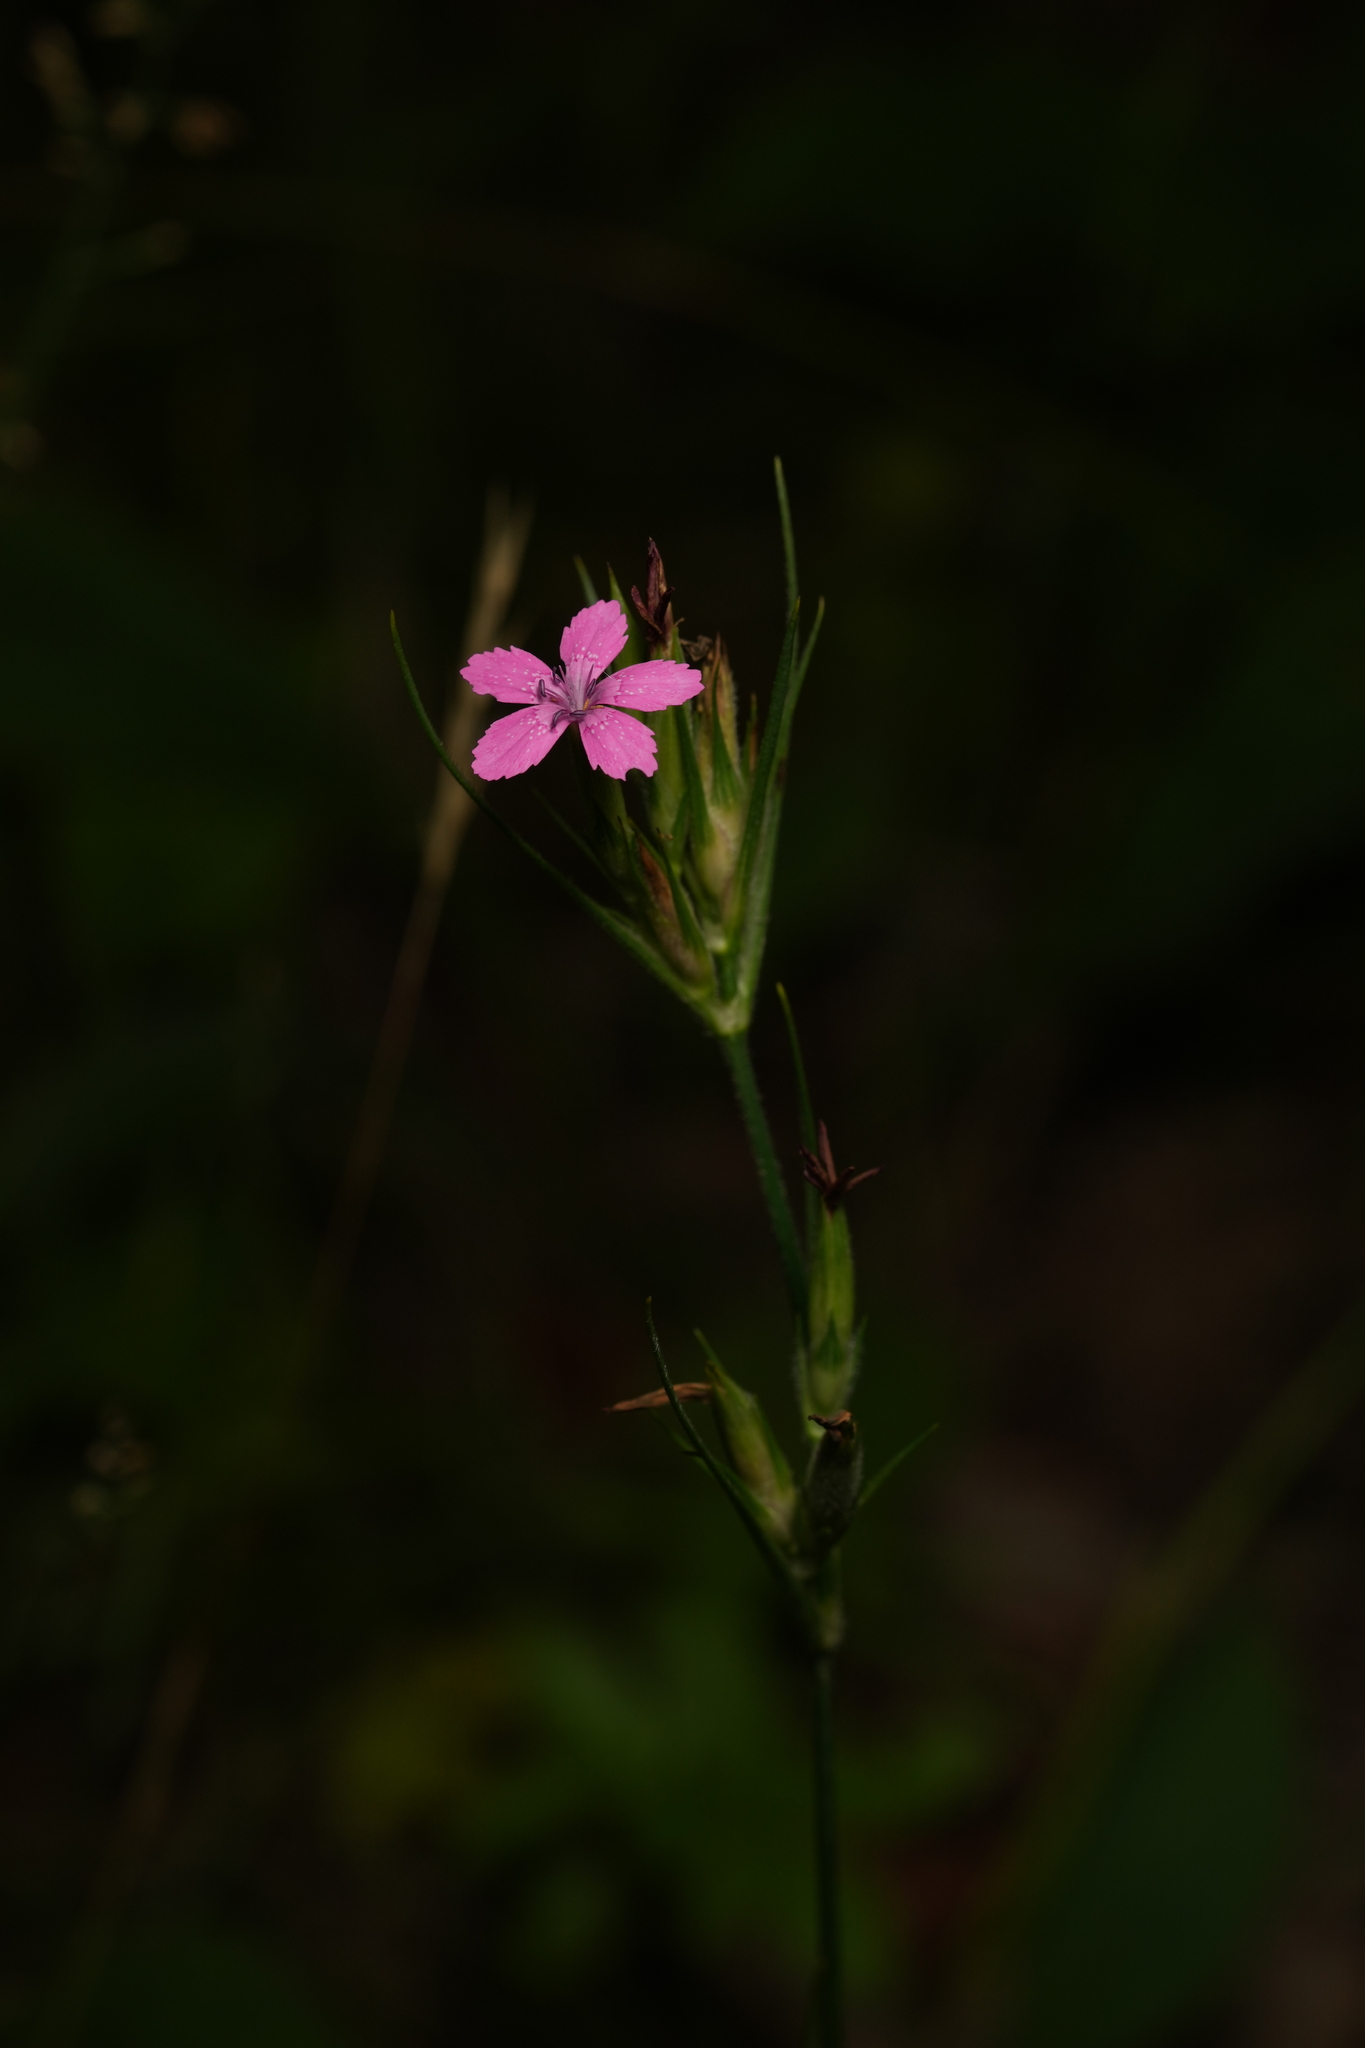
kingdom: Plantae
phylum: Tracheophyta
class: Magnoliopsida
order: Caryophyllales
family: Caryophyllaceae
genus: Dianthus
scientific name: Dianthus armeria
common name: Deptford pink
